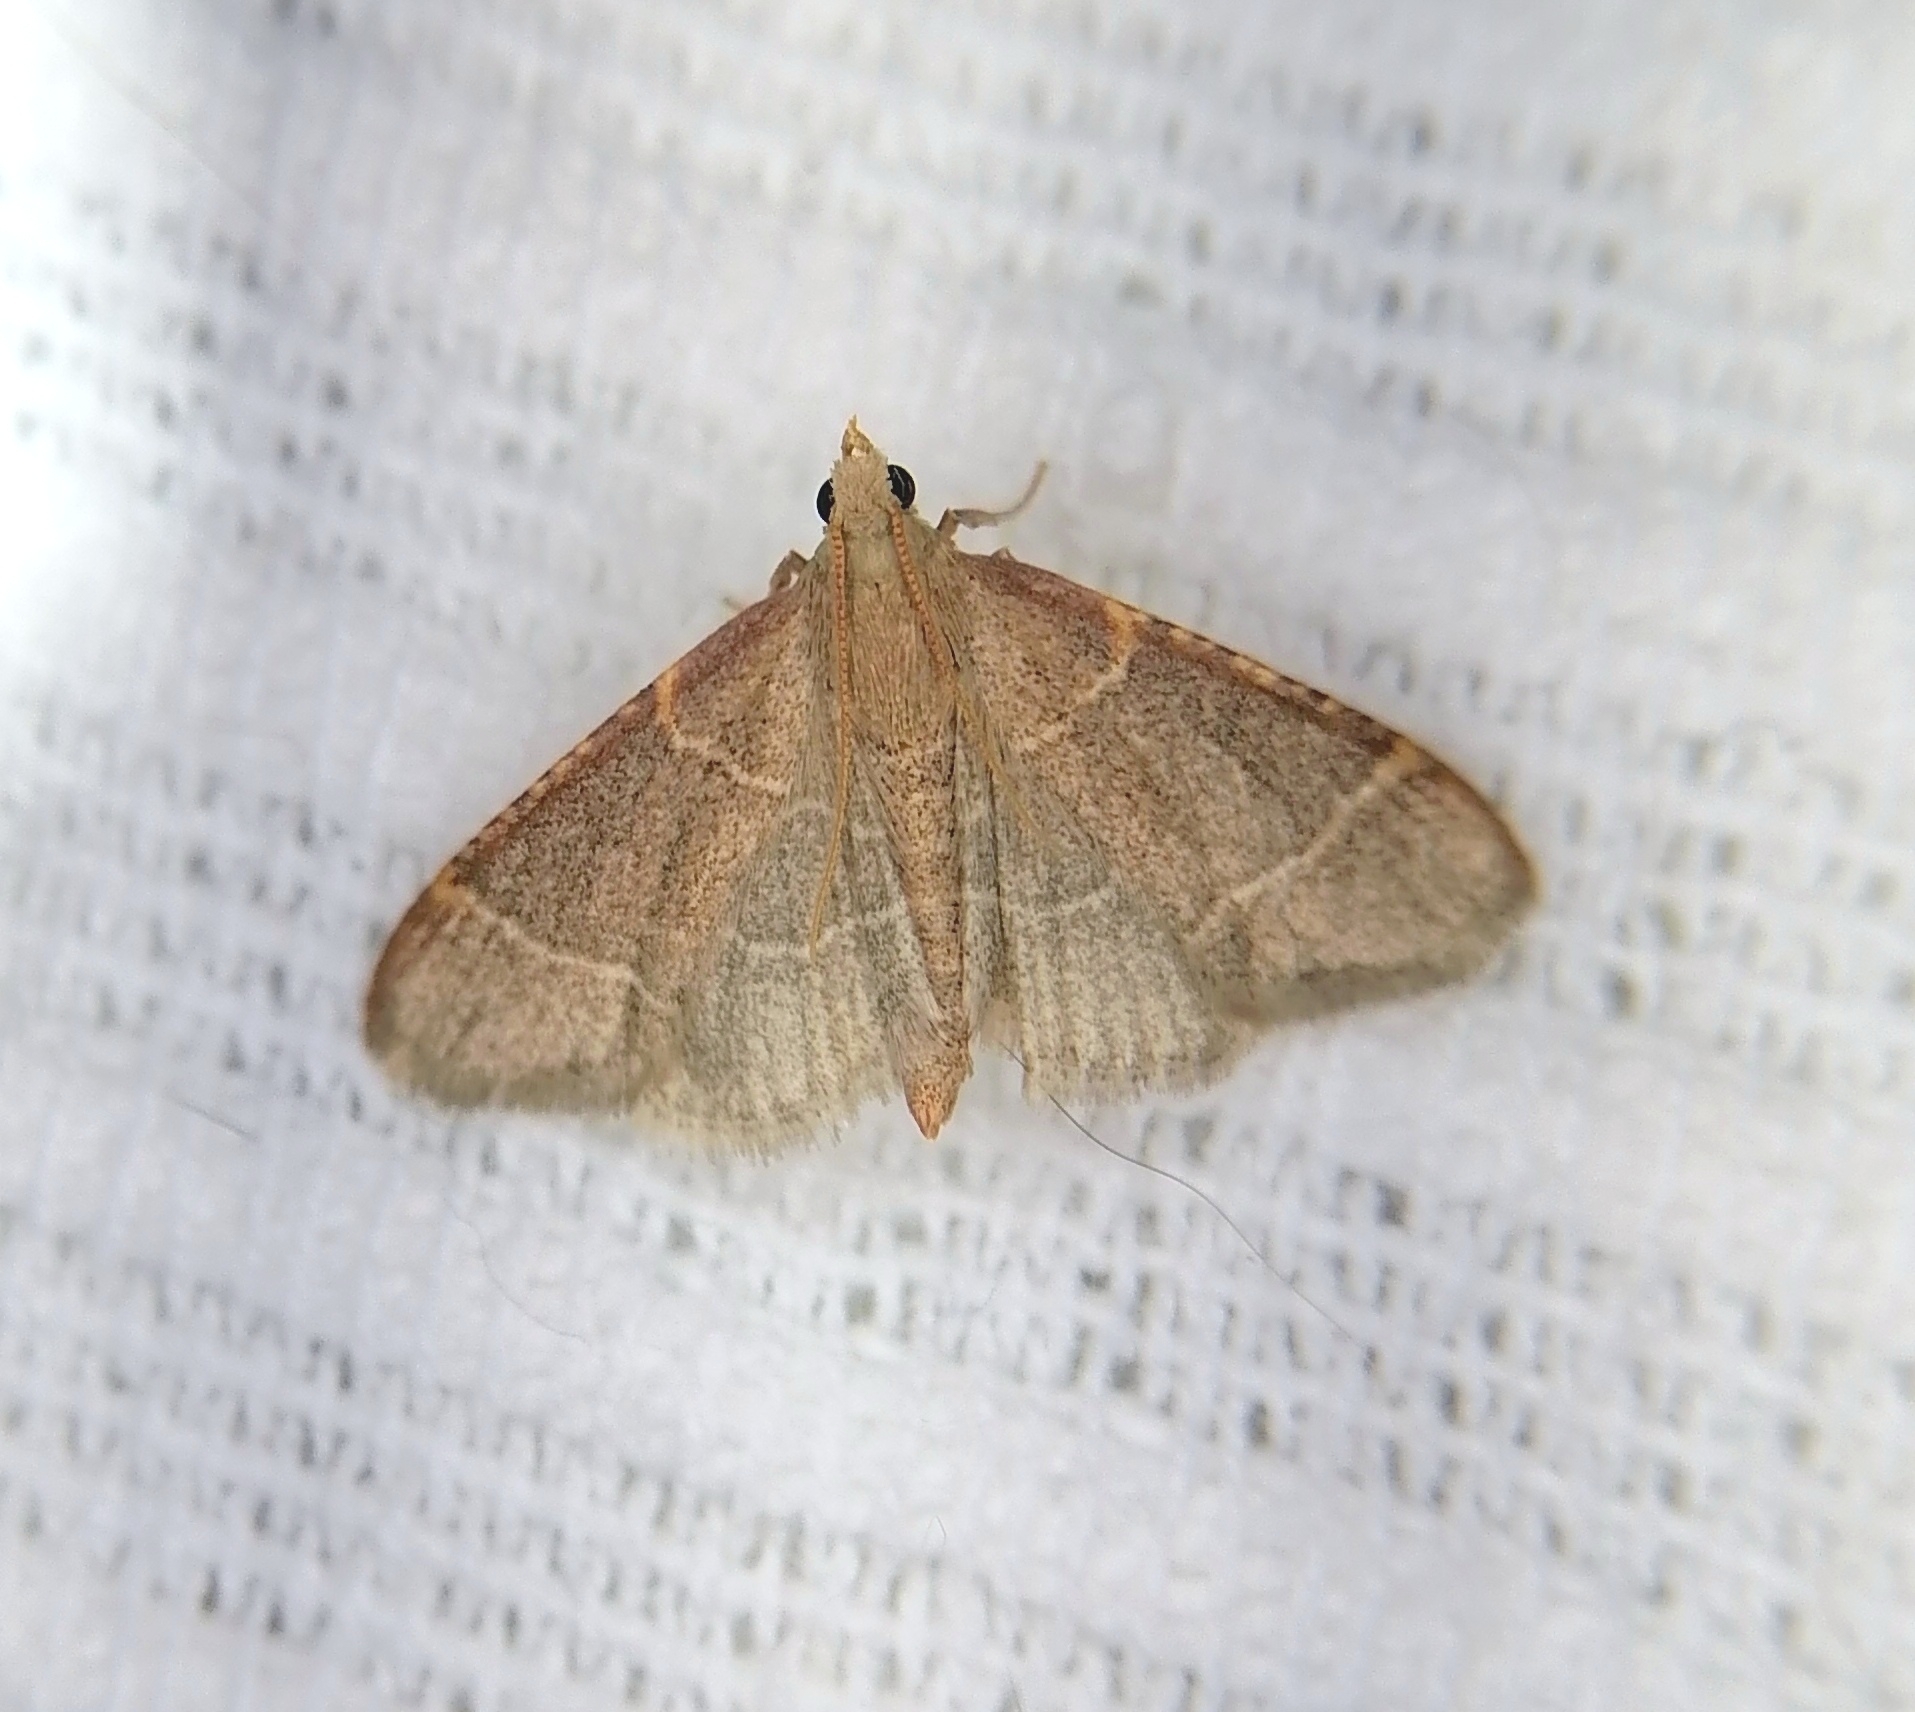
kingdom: Animalia
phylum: Arthropoda
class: Insecta
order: Lepidoptera
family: Pyralidae
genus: Hypsopygia
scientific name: Hypsopygia glaucinalis
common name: Double-striped tabby
